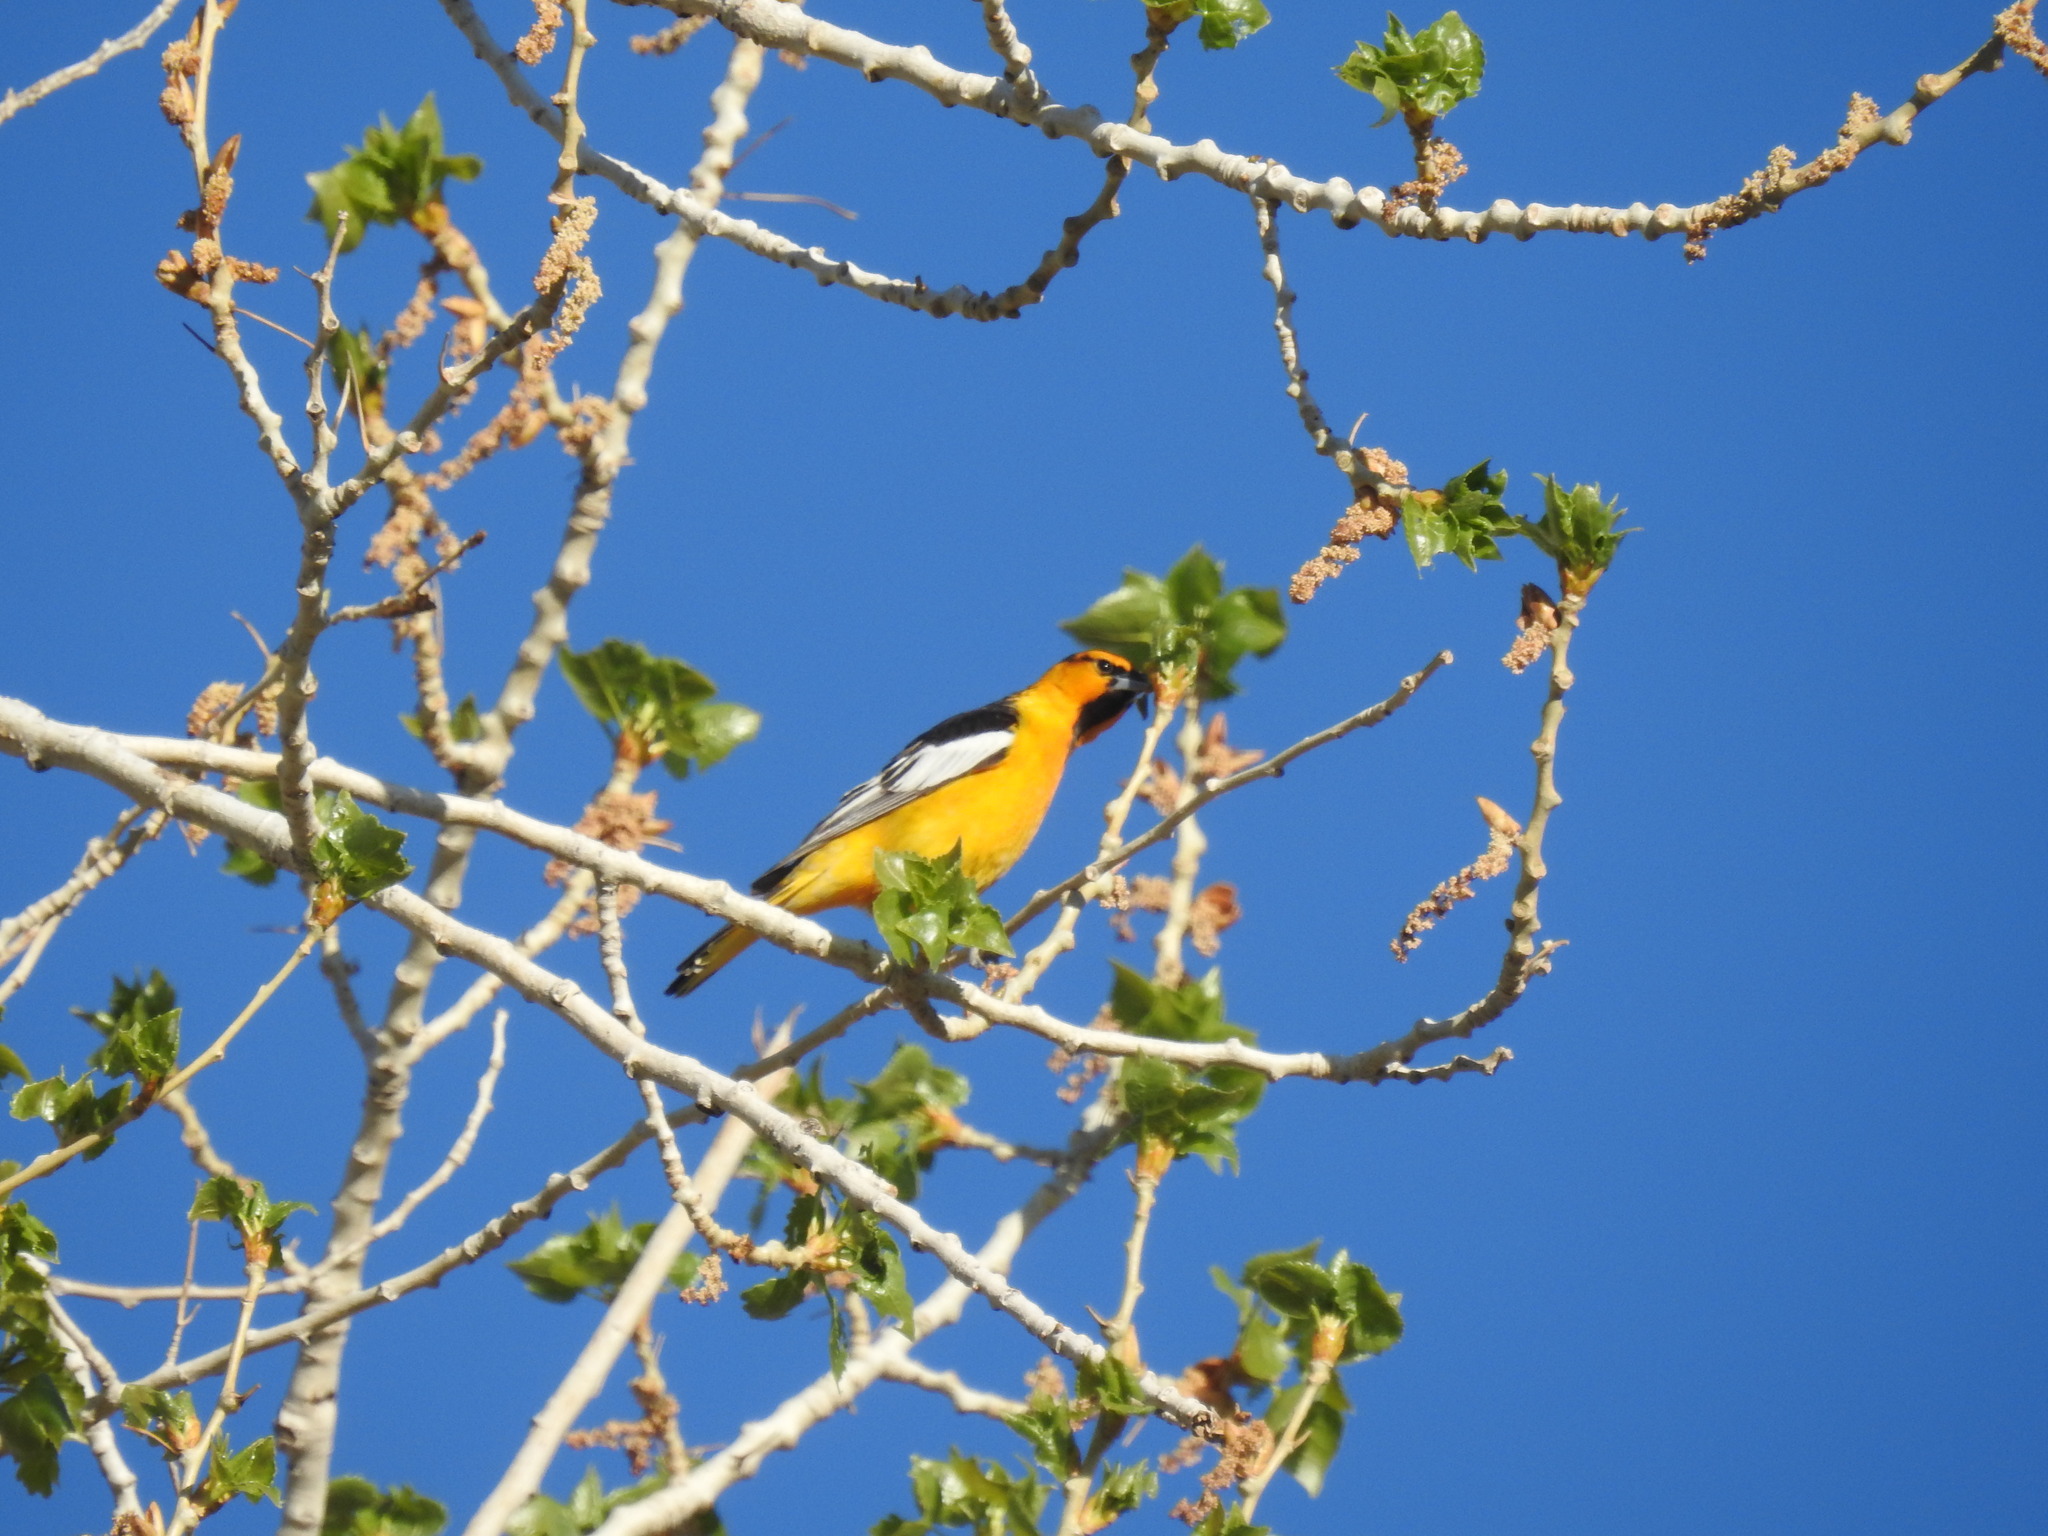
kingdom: Animalia
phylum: Chordata
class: Aves
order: Passeriformes
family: Icteridae
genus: Icterus
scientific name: Icterus bullockii
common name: Bullock's oriole
